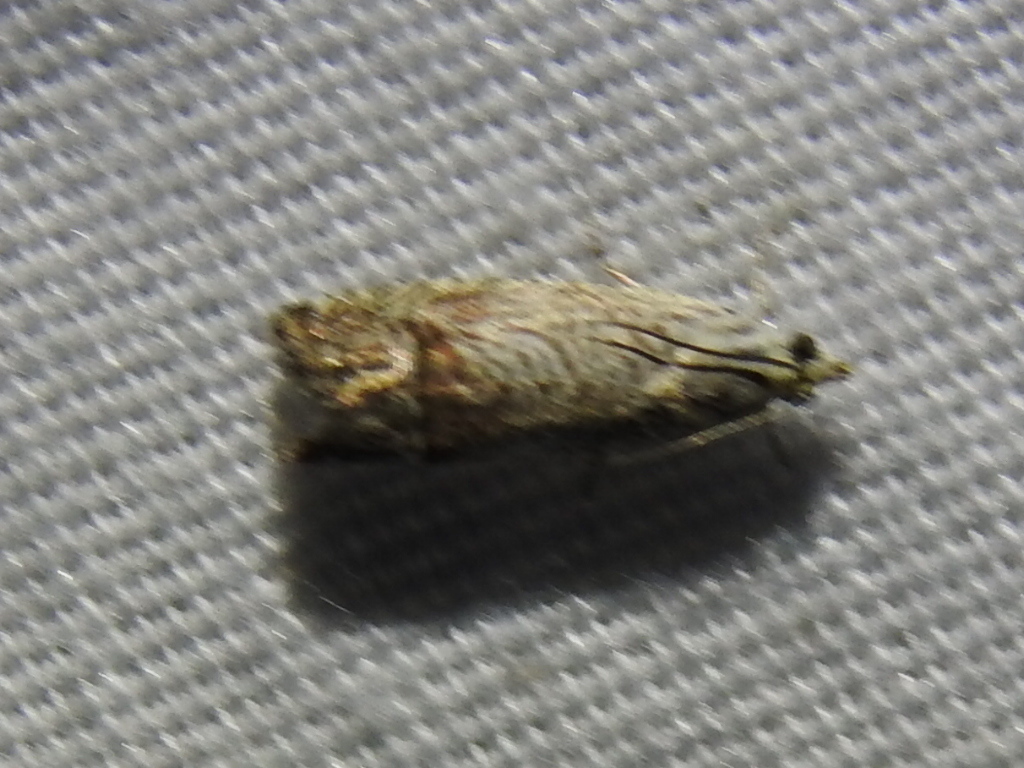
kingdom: Animalia
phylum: Arthropoda
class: Insecta
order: Lepidoptera
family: Tortricidae
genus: Ofatulena
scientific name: Ofatulena duodecemstriata
